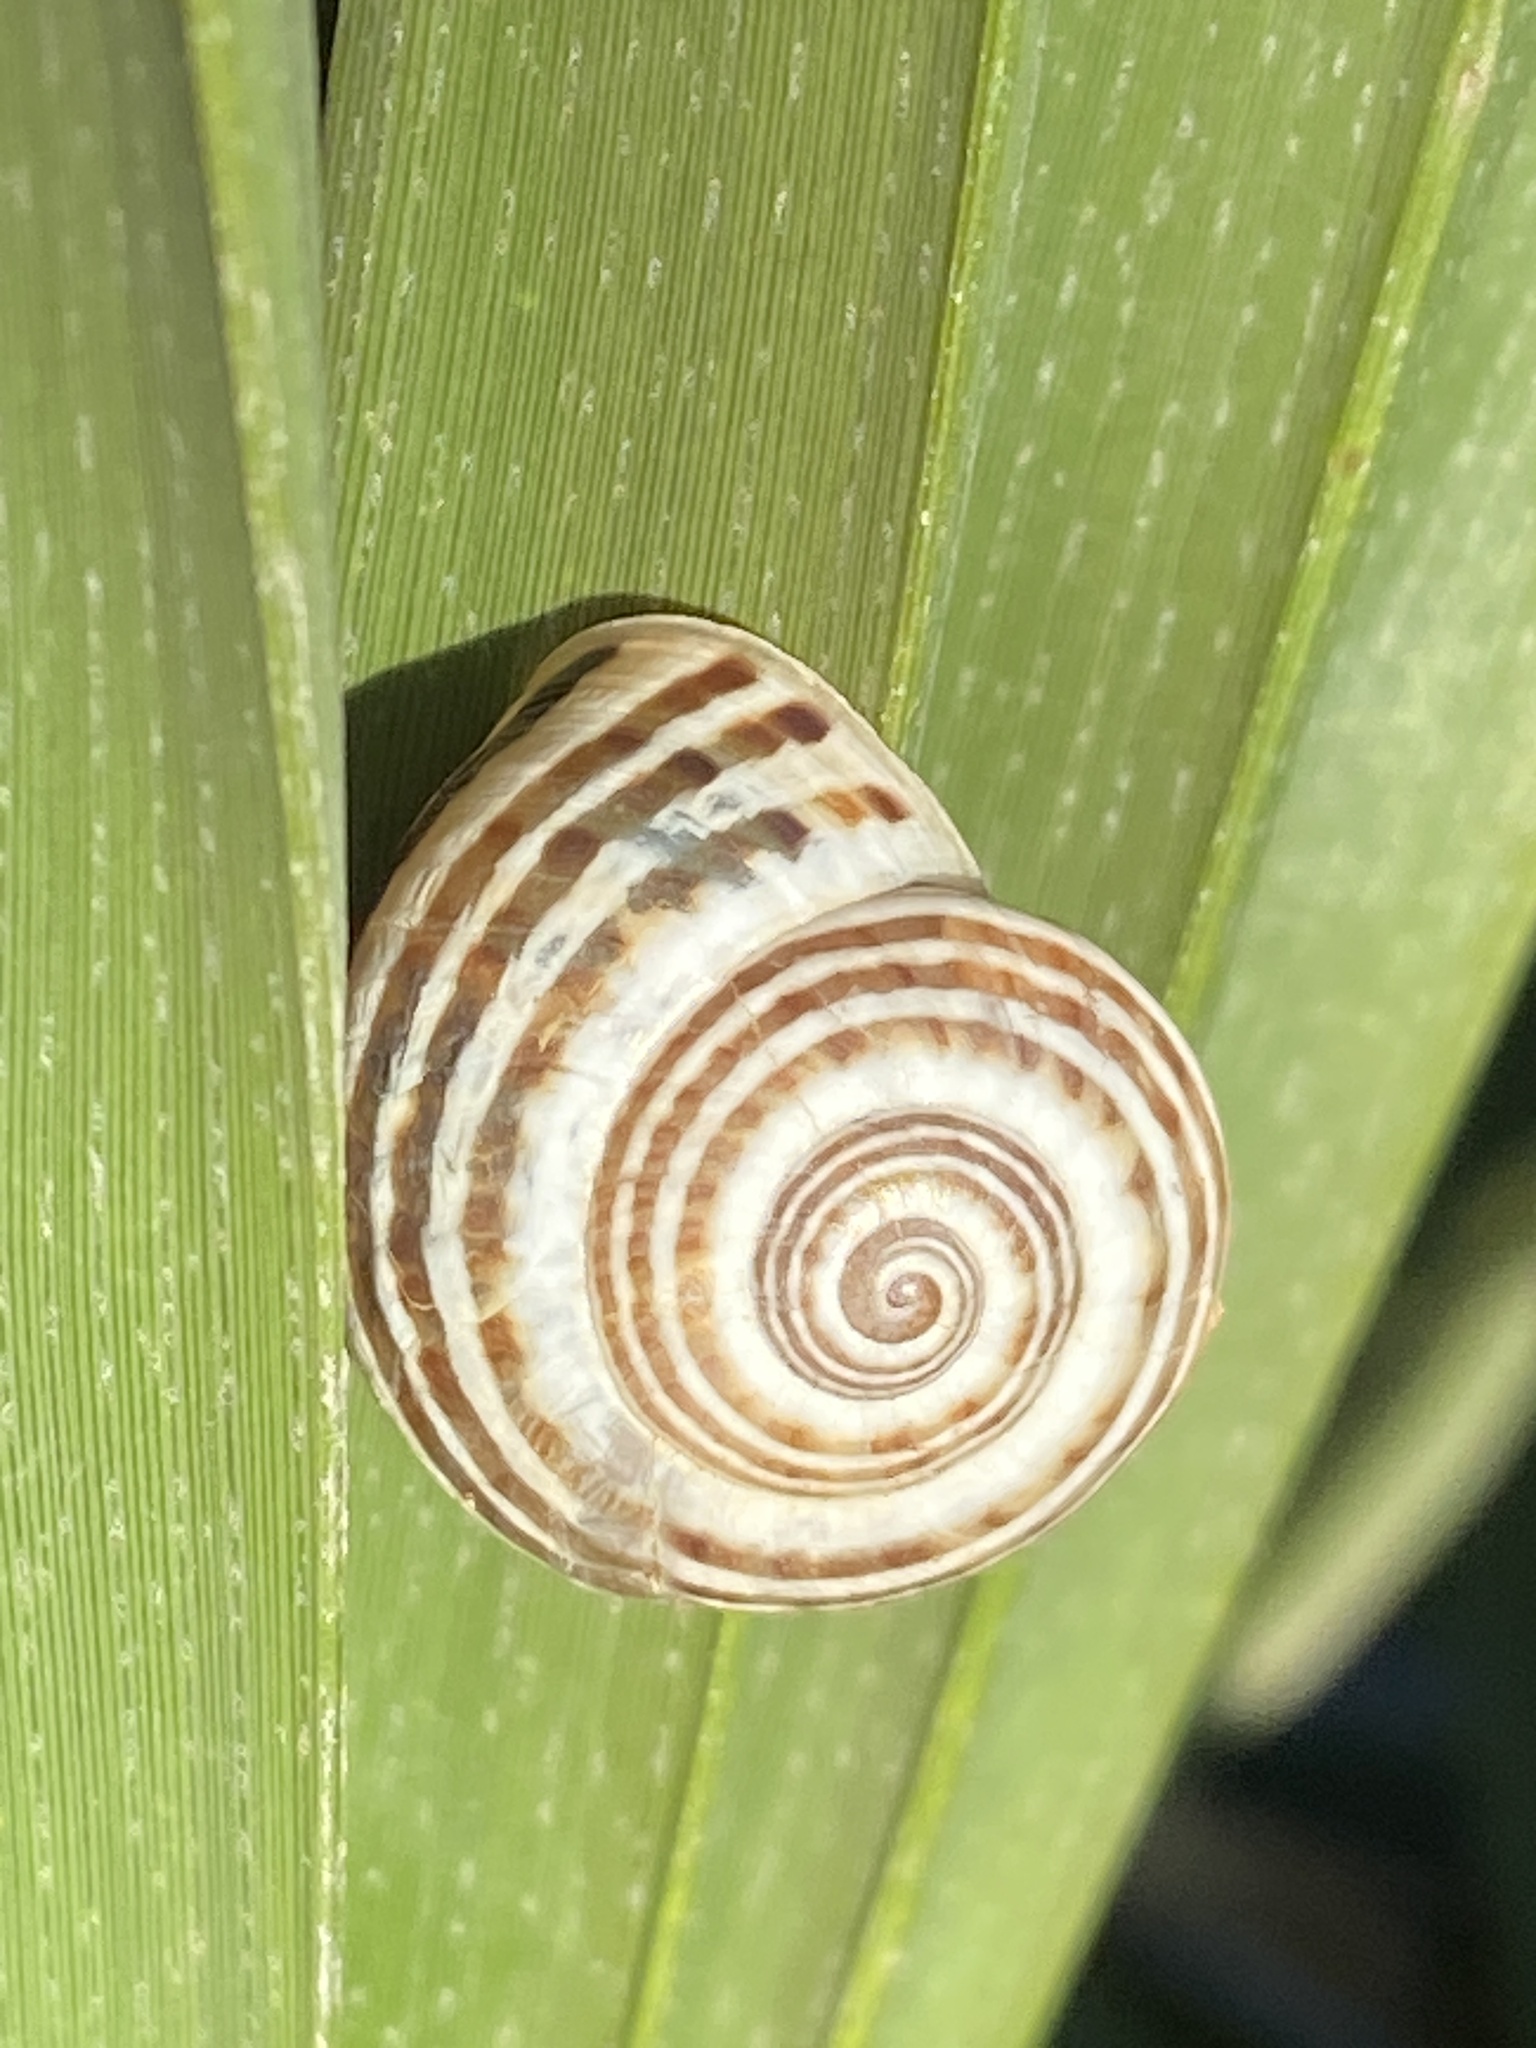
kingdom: Animalia
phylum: Mollusca
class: Gastropoda
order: Stylommatophora
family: Helicidae
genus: Pseudotachea
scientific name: Pseudotachea splendida
